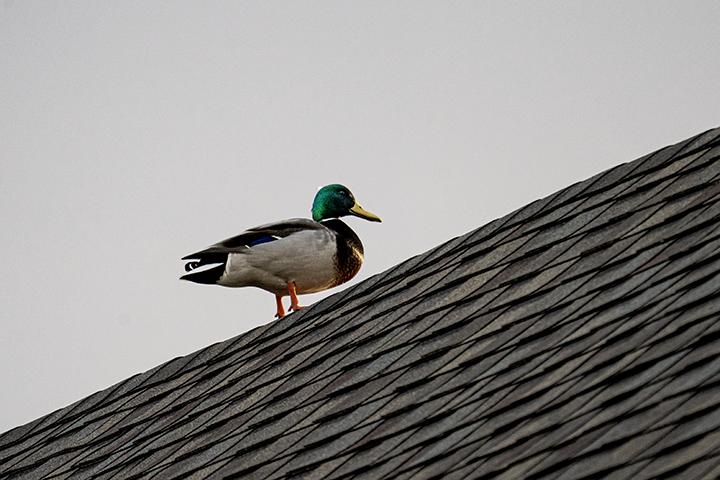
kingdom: Animalia
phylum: Chordata
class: Aves
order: Anseriformes
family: Anatidae
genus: Anas
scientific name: Anas platyrhynchos
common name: Mallard
